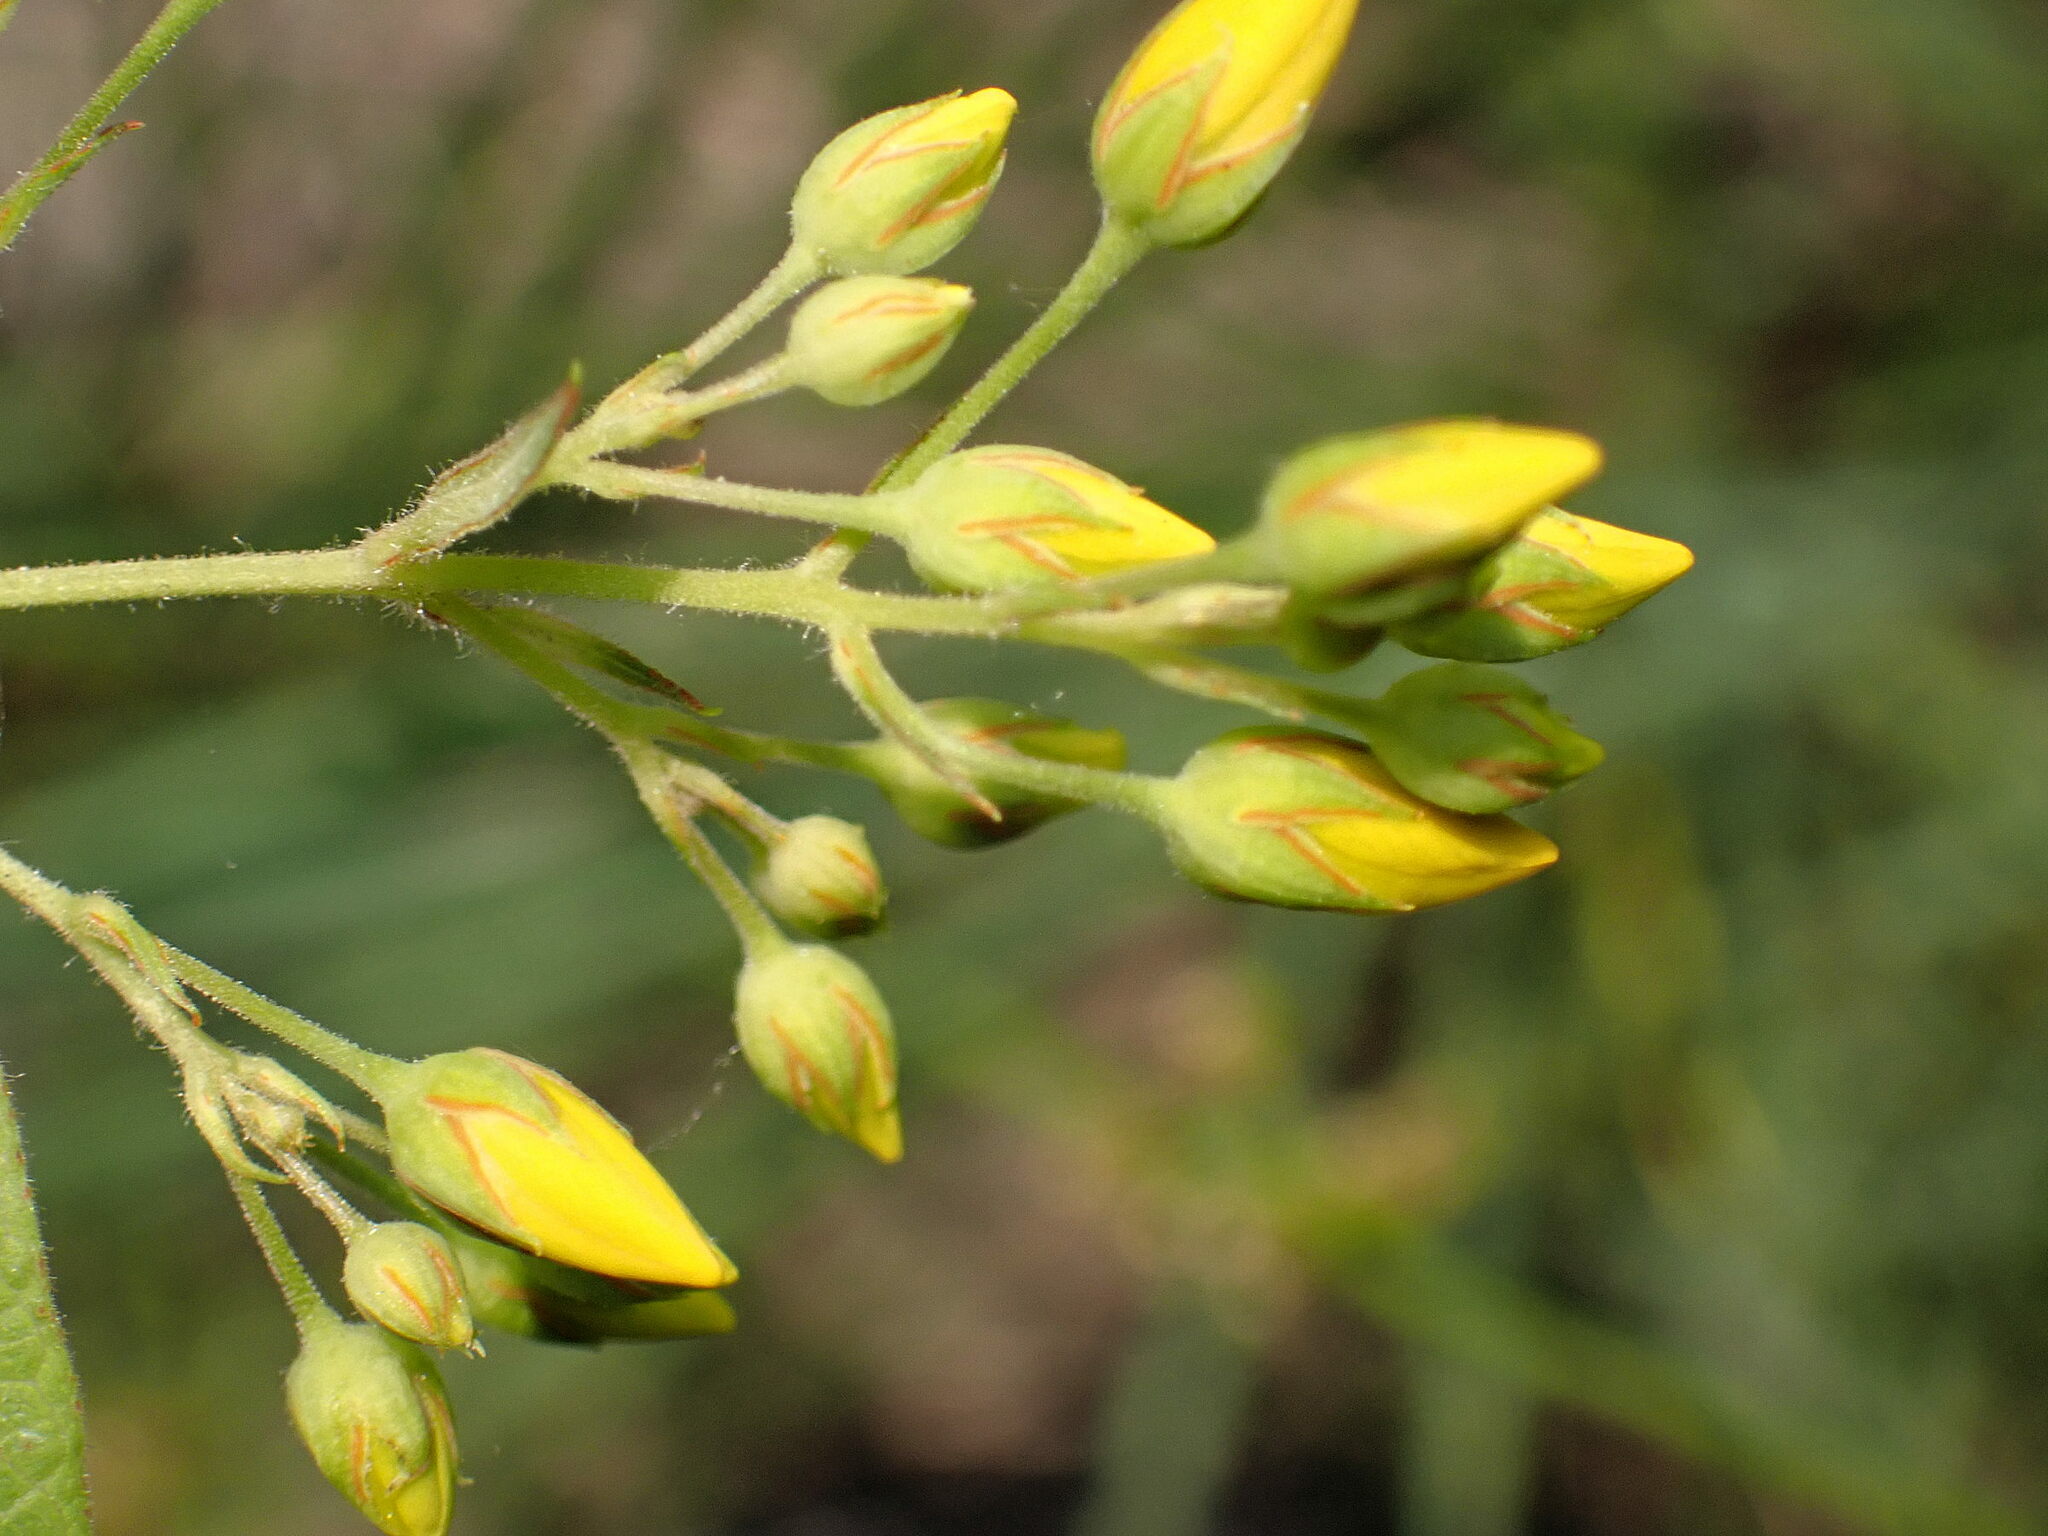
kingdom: Plantae
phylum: Tracheophyta
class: Magnoliopsida
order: Ericales
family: Primulaceae
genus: Lysimachia
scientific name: Lysimachia vulgaris
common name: Yellow loosestrife
